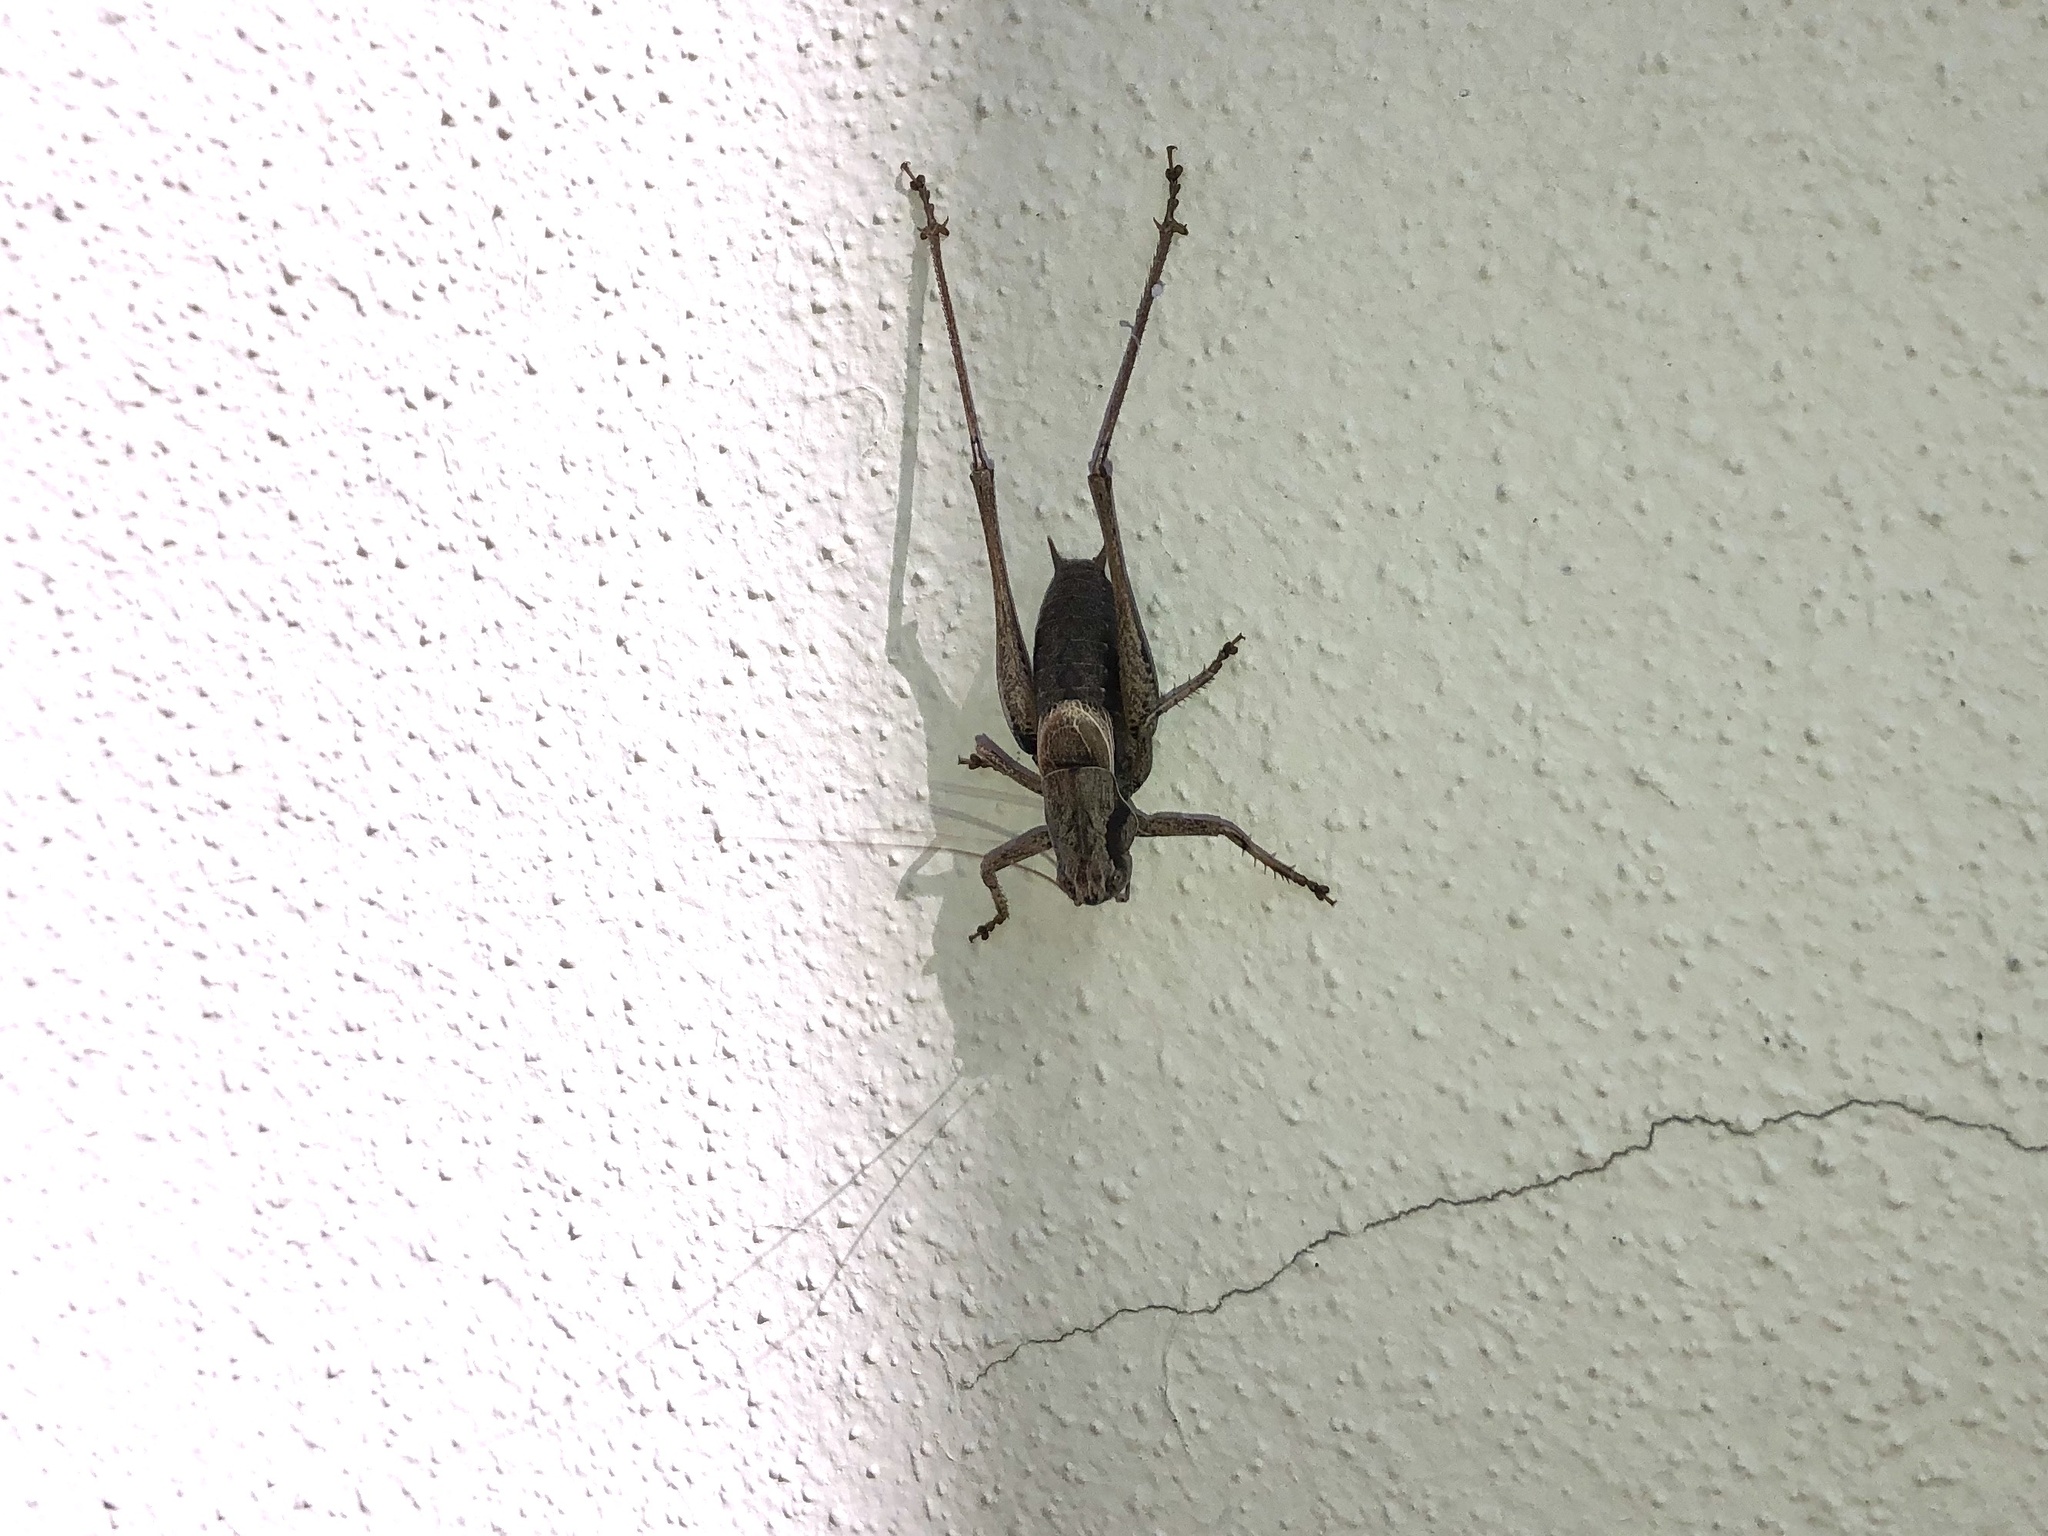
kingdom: Animalia
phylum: Arthropoda
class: Insecta
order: Orthoptera
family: Tettigoniidae
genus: Pholidoptera
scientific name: Pholidoptera griseoaptera
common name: Dark bush-cricket
